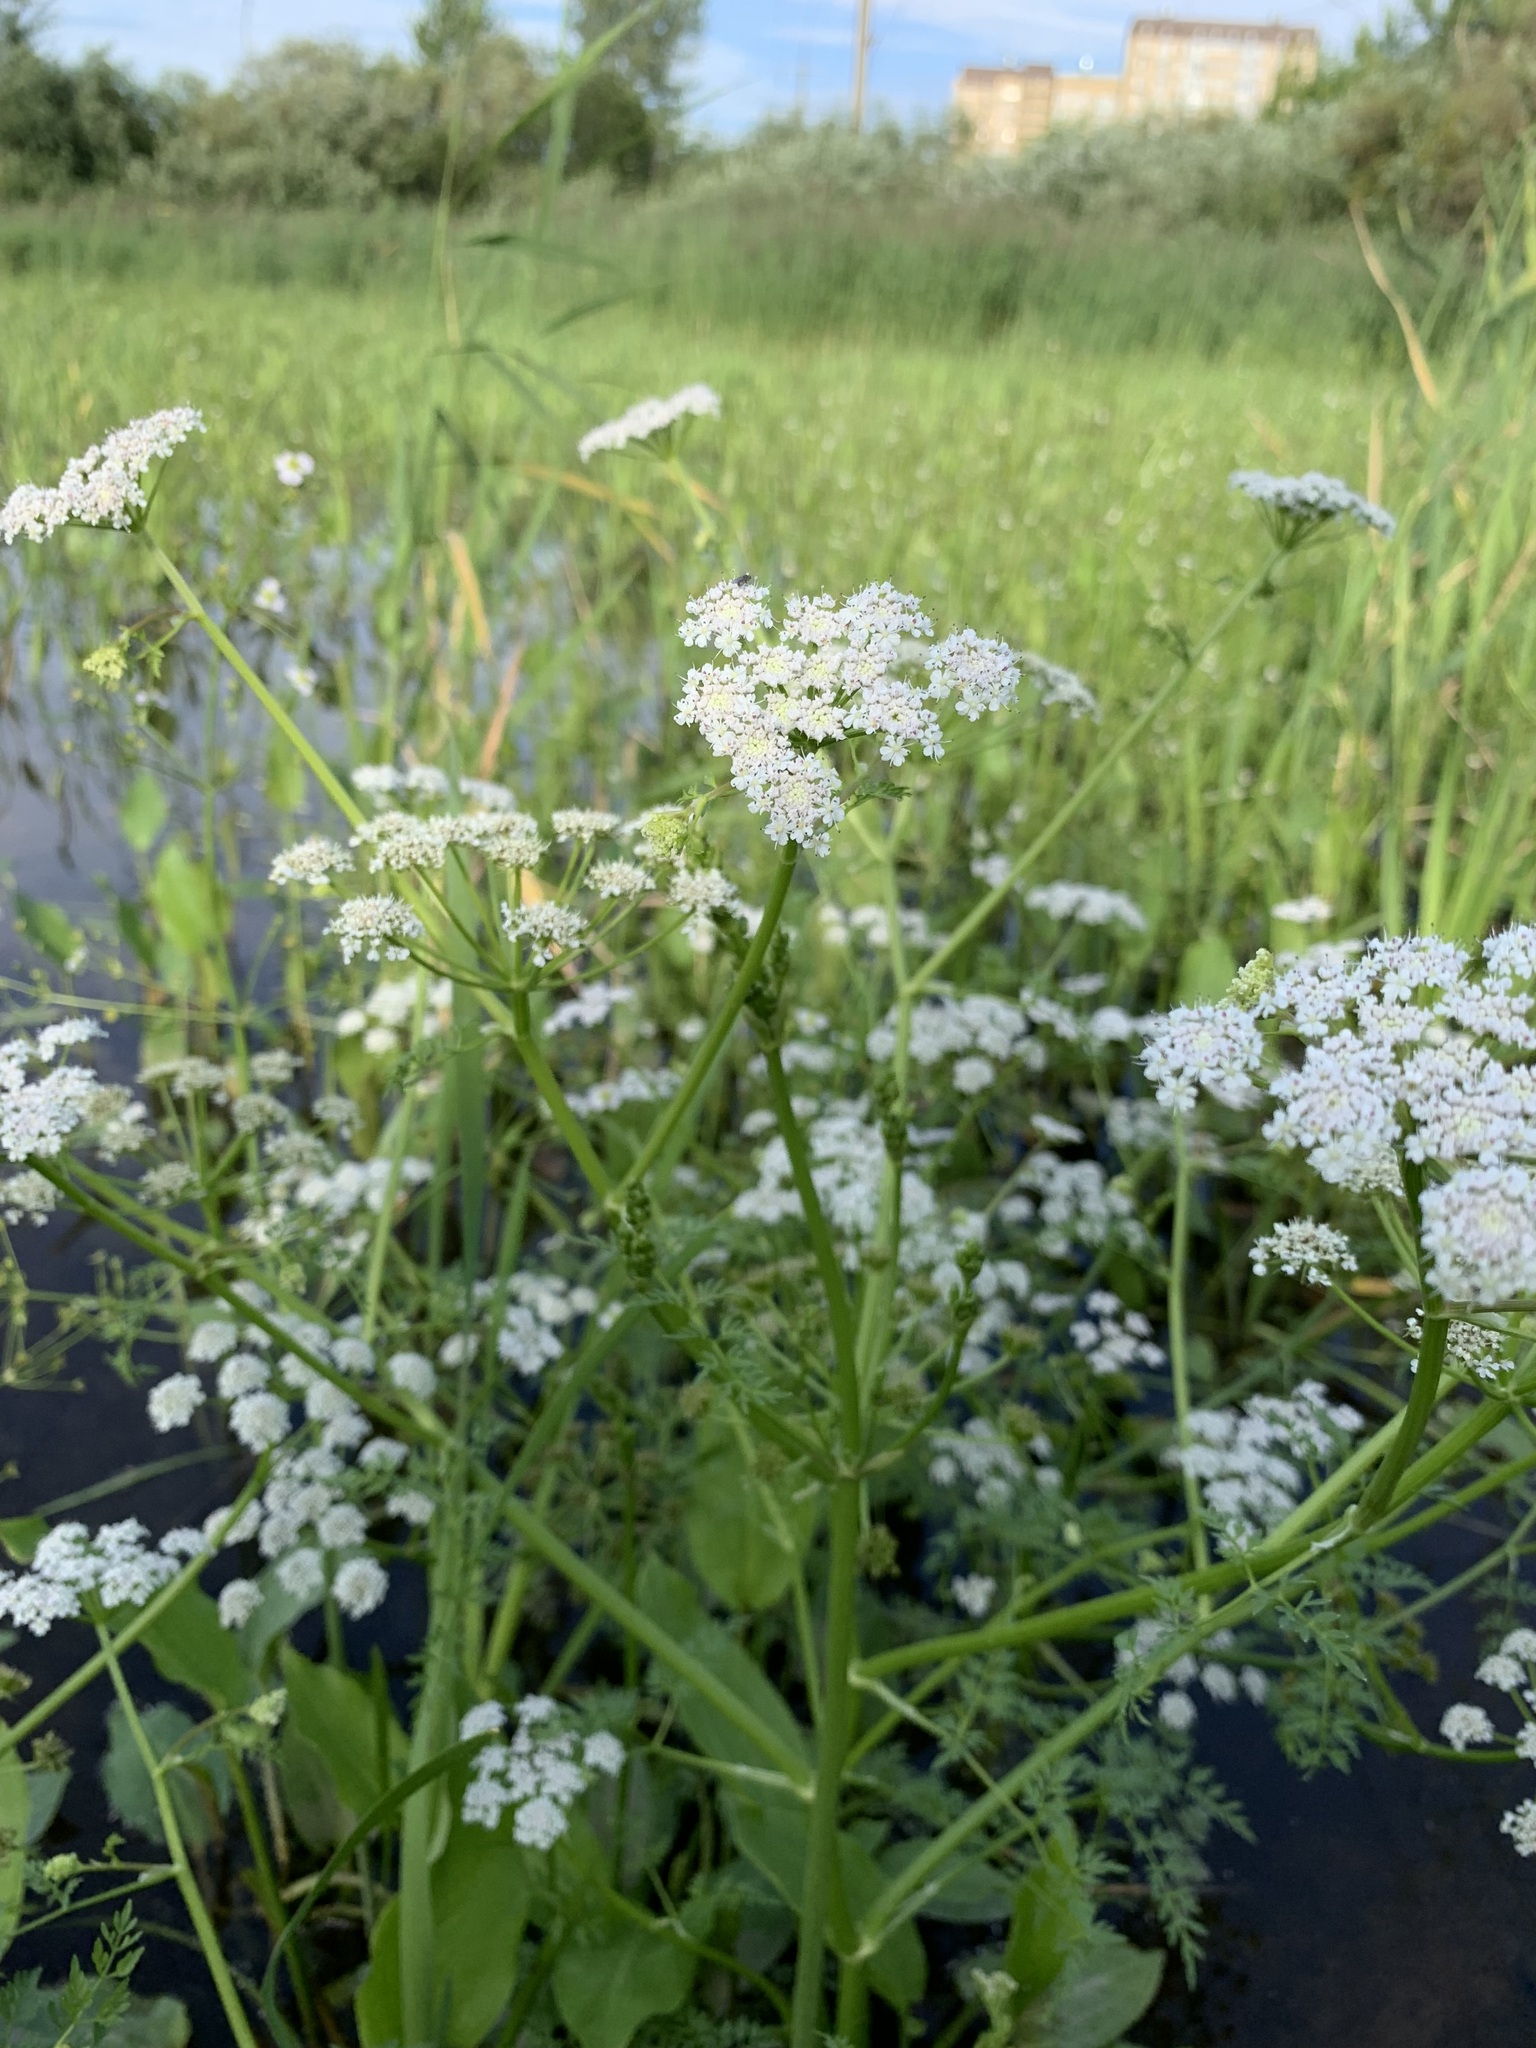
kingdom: Plantae
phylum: Tracheophyta
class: Magnoliopsida
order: Apiales
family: Apiaceae
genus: Oenanthe
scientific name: Oenanthe aquatica
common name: Fine-leaved water-dropwort
